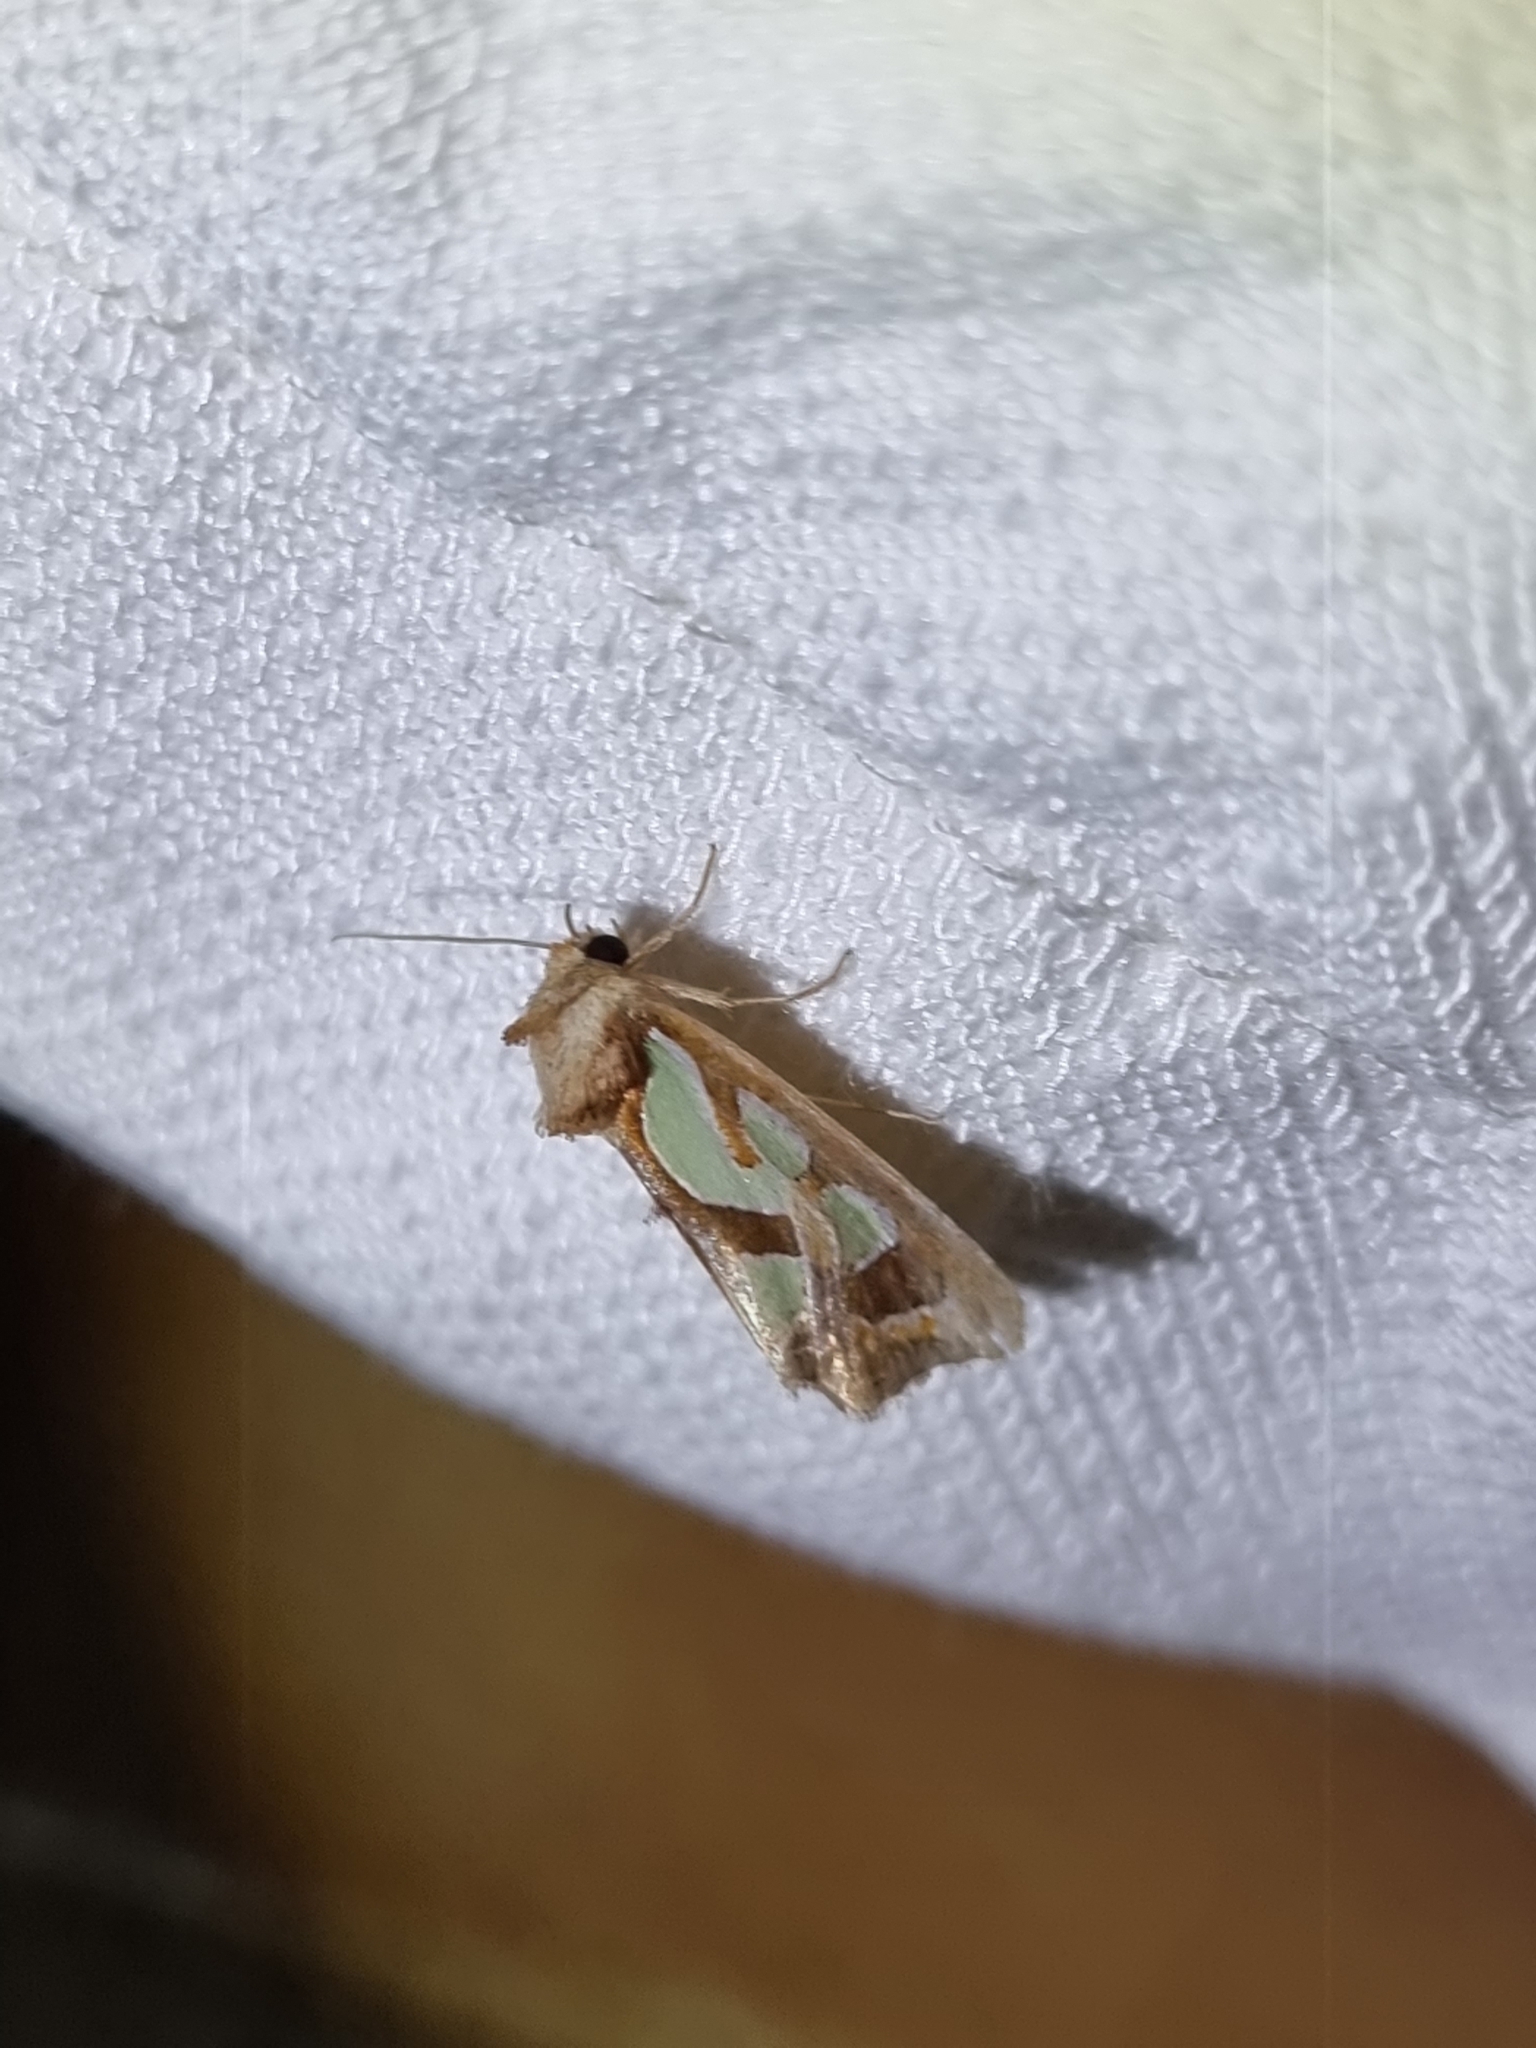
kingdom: Animalia
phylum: Arthropoda
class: Insecta
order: Lepidoptera
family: Noctuidae
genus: Cosmodes
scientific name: Cosmodes elegans
